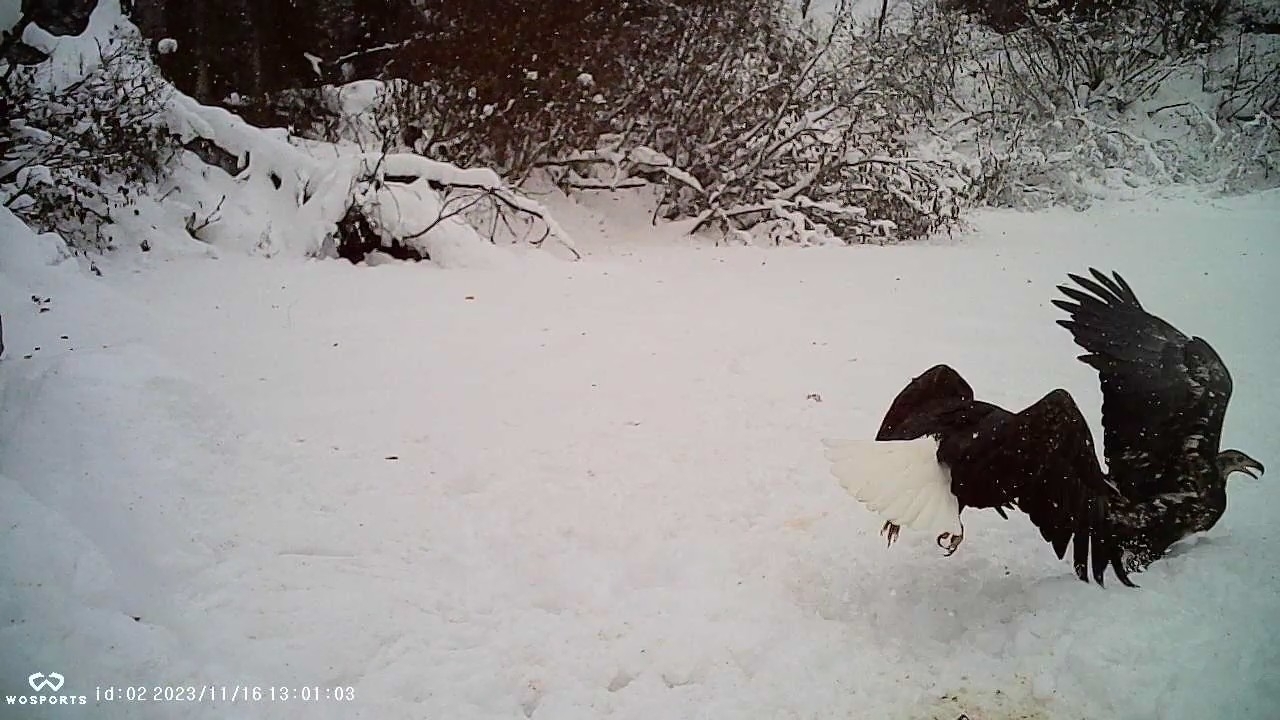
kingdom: Animalia
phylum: Chordata
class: Aves
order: Accipitriformes
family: Accipitridae
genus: Haliaeetus
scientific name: Haliaeetus leucocephalus
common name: Bald eagle
